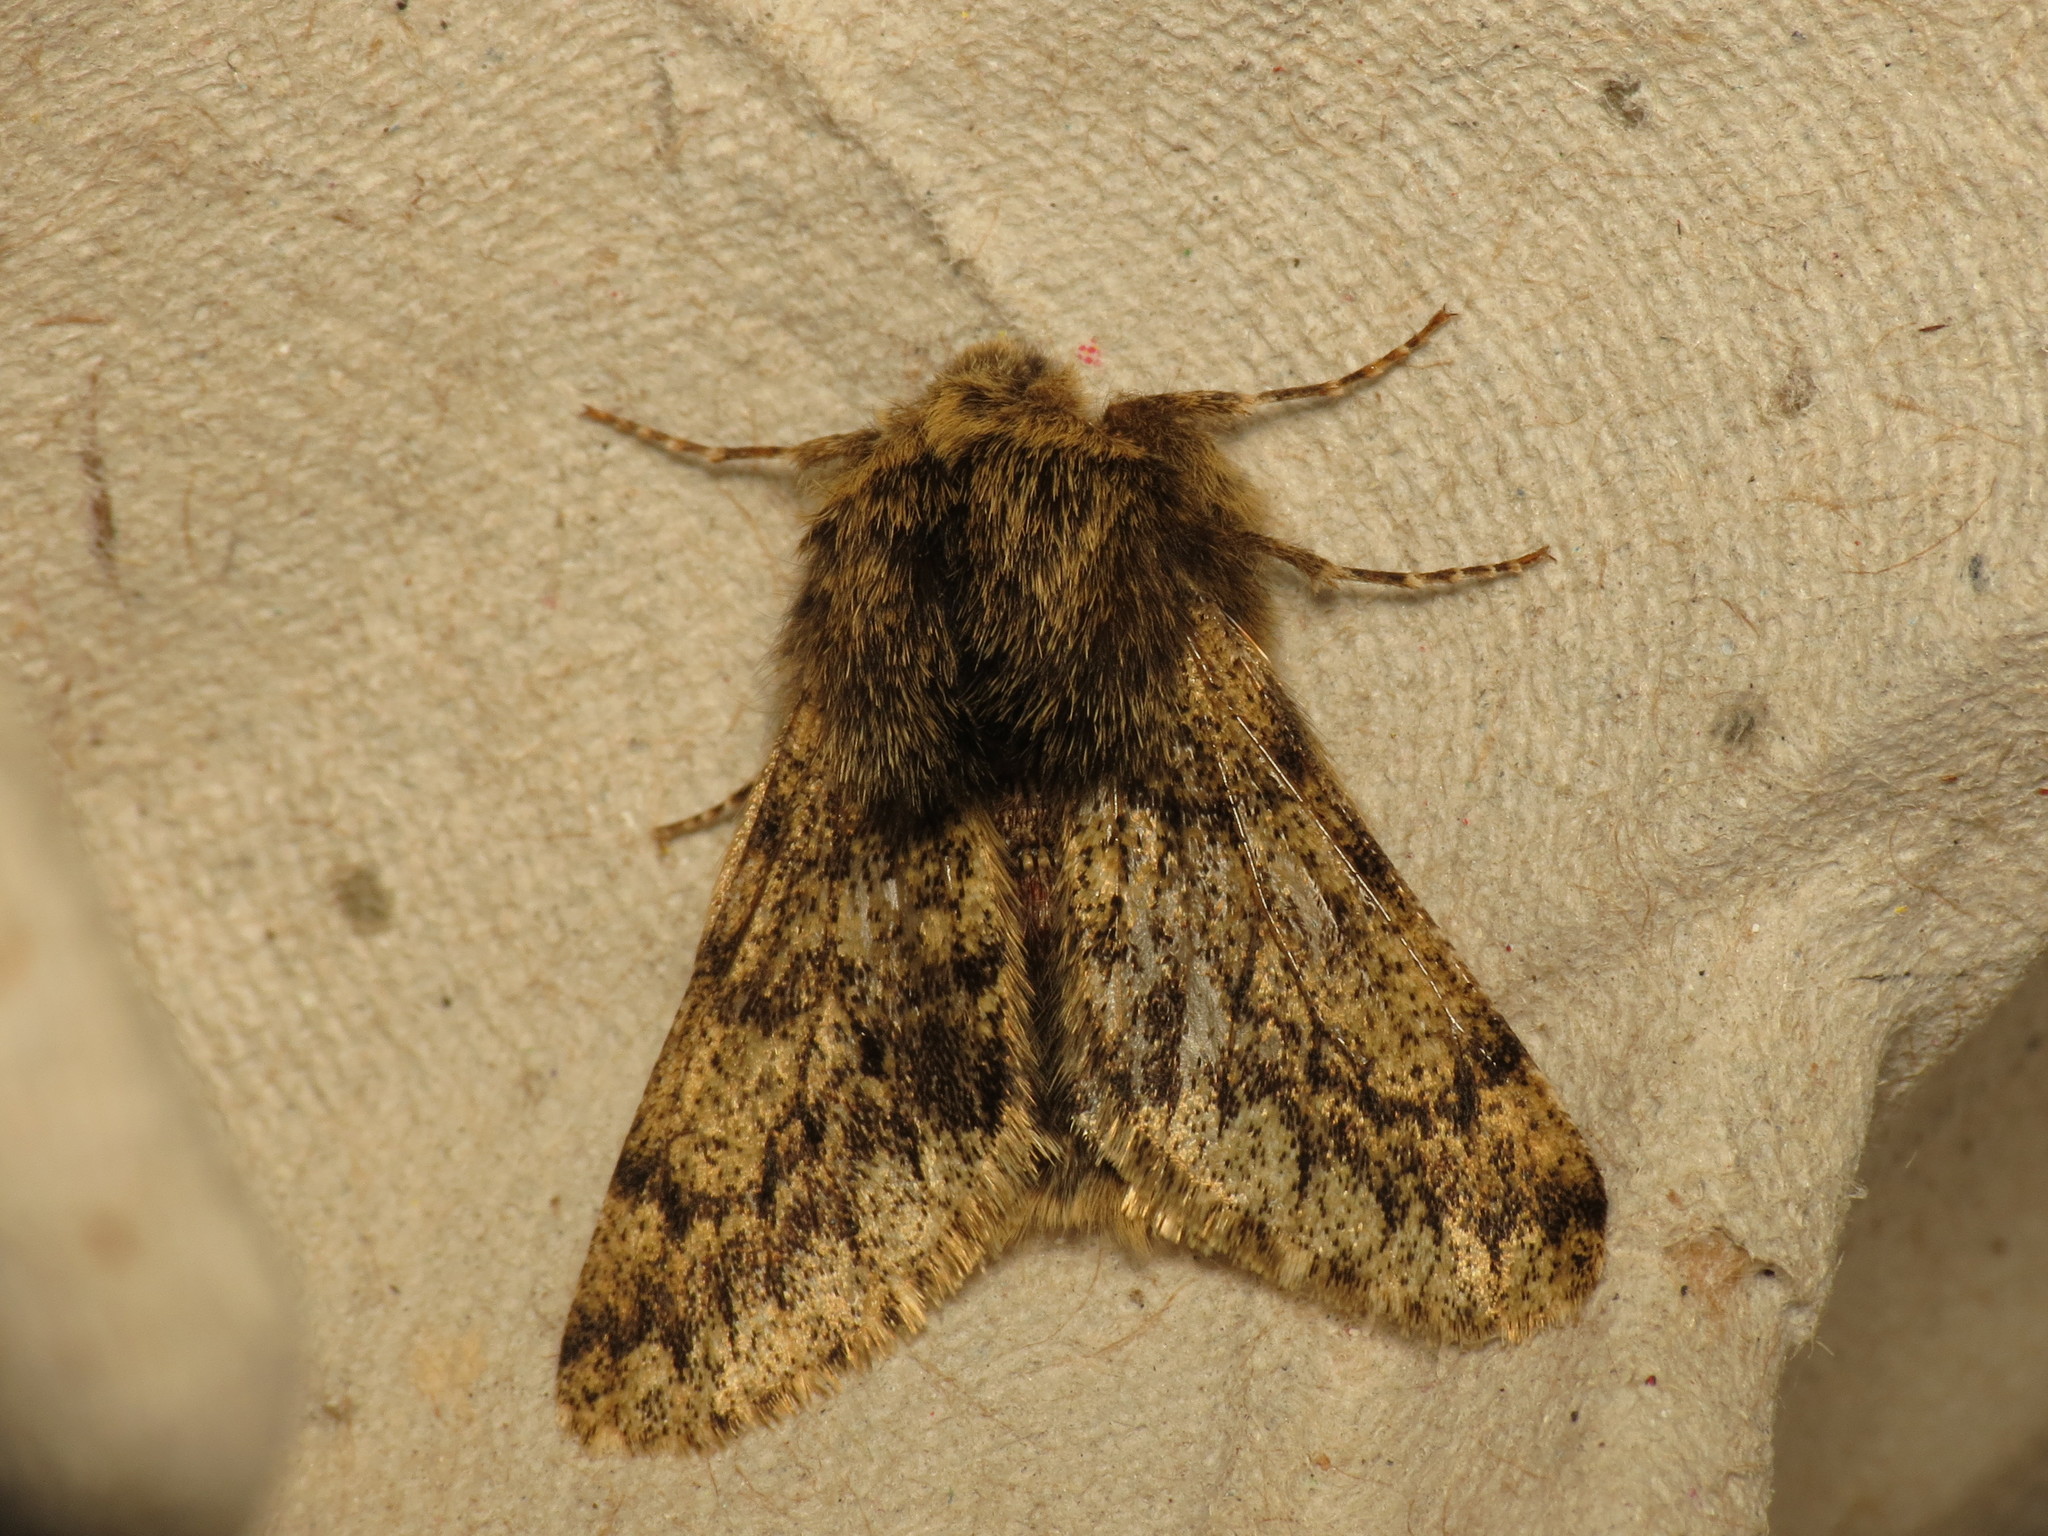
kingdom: Animalia
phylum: Arthropoda
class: Insecta
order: Lepidoptera
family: Geometridae
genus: Apocheima
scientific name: Apocheima hispidaria
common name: Small brindled beauty
